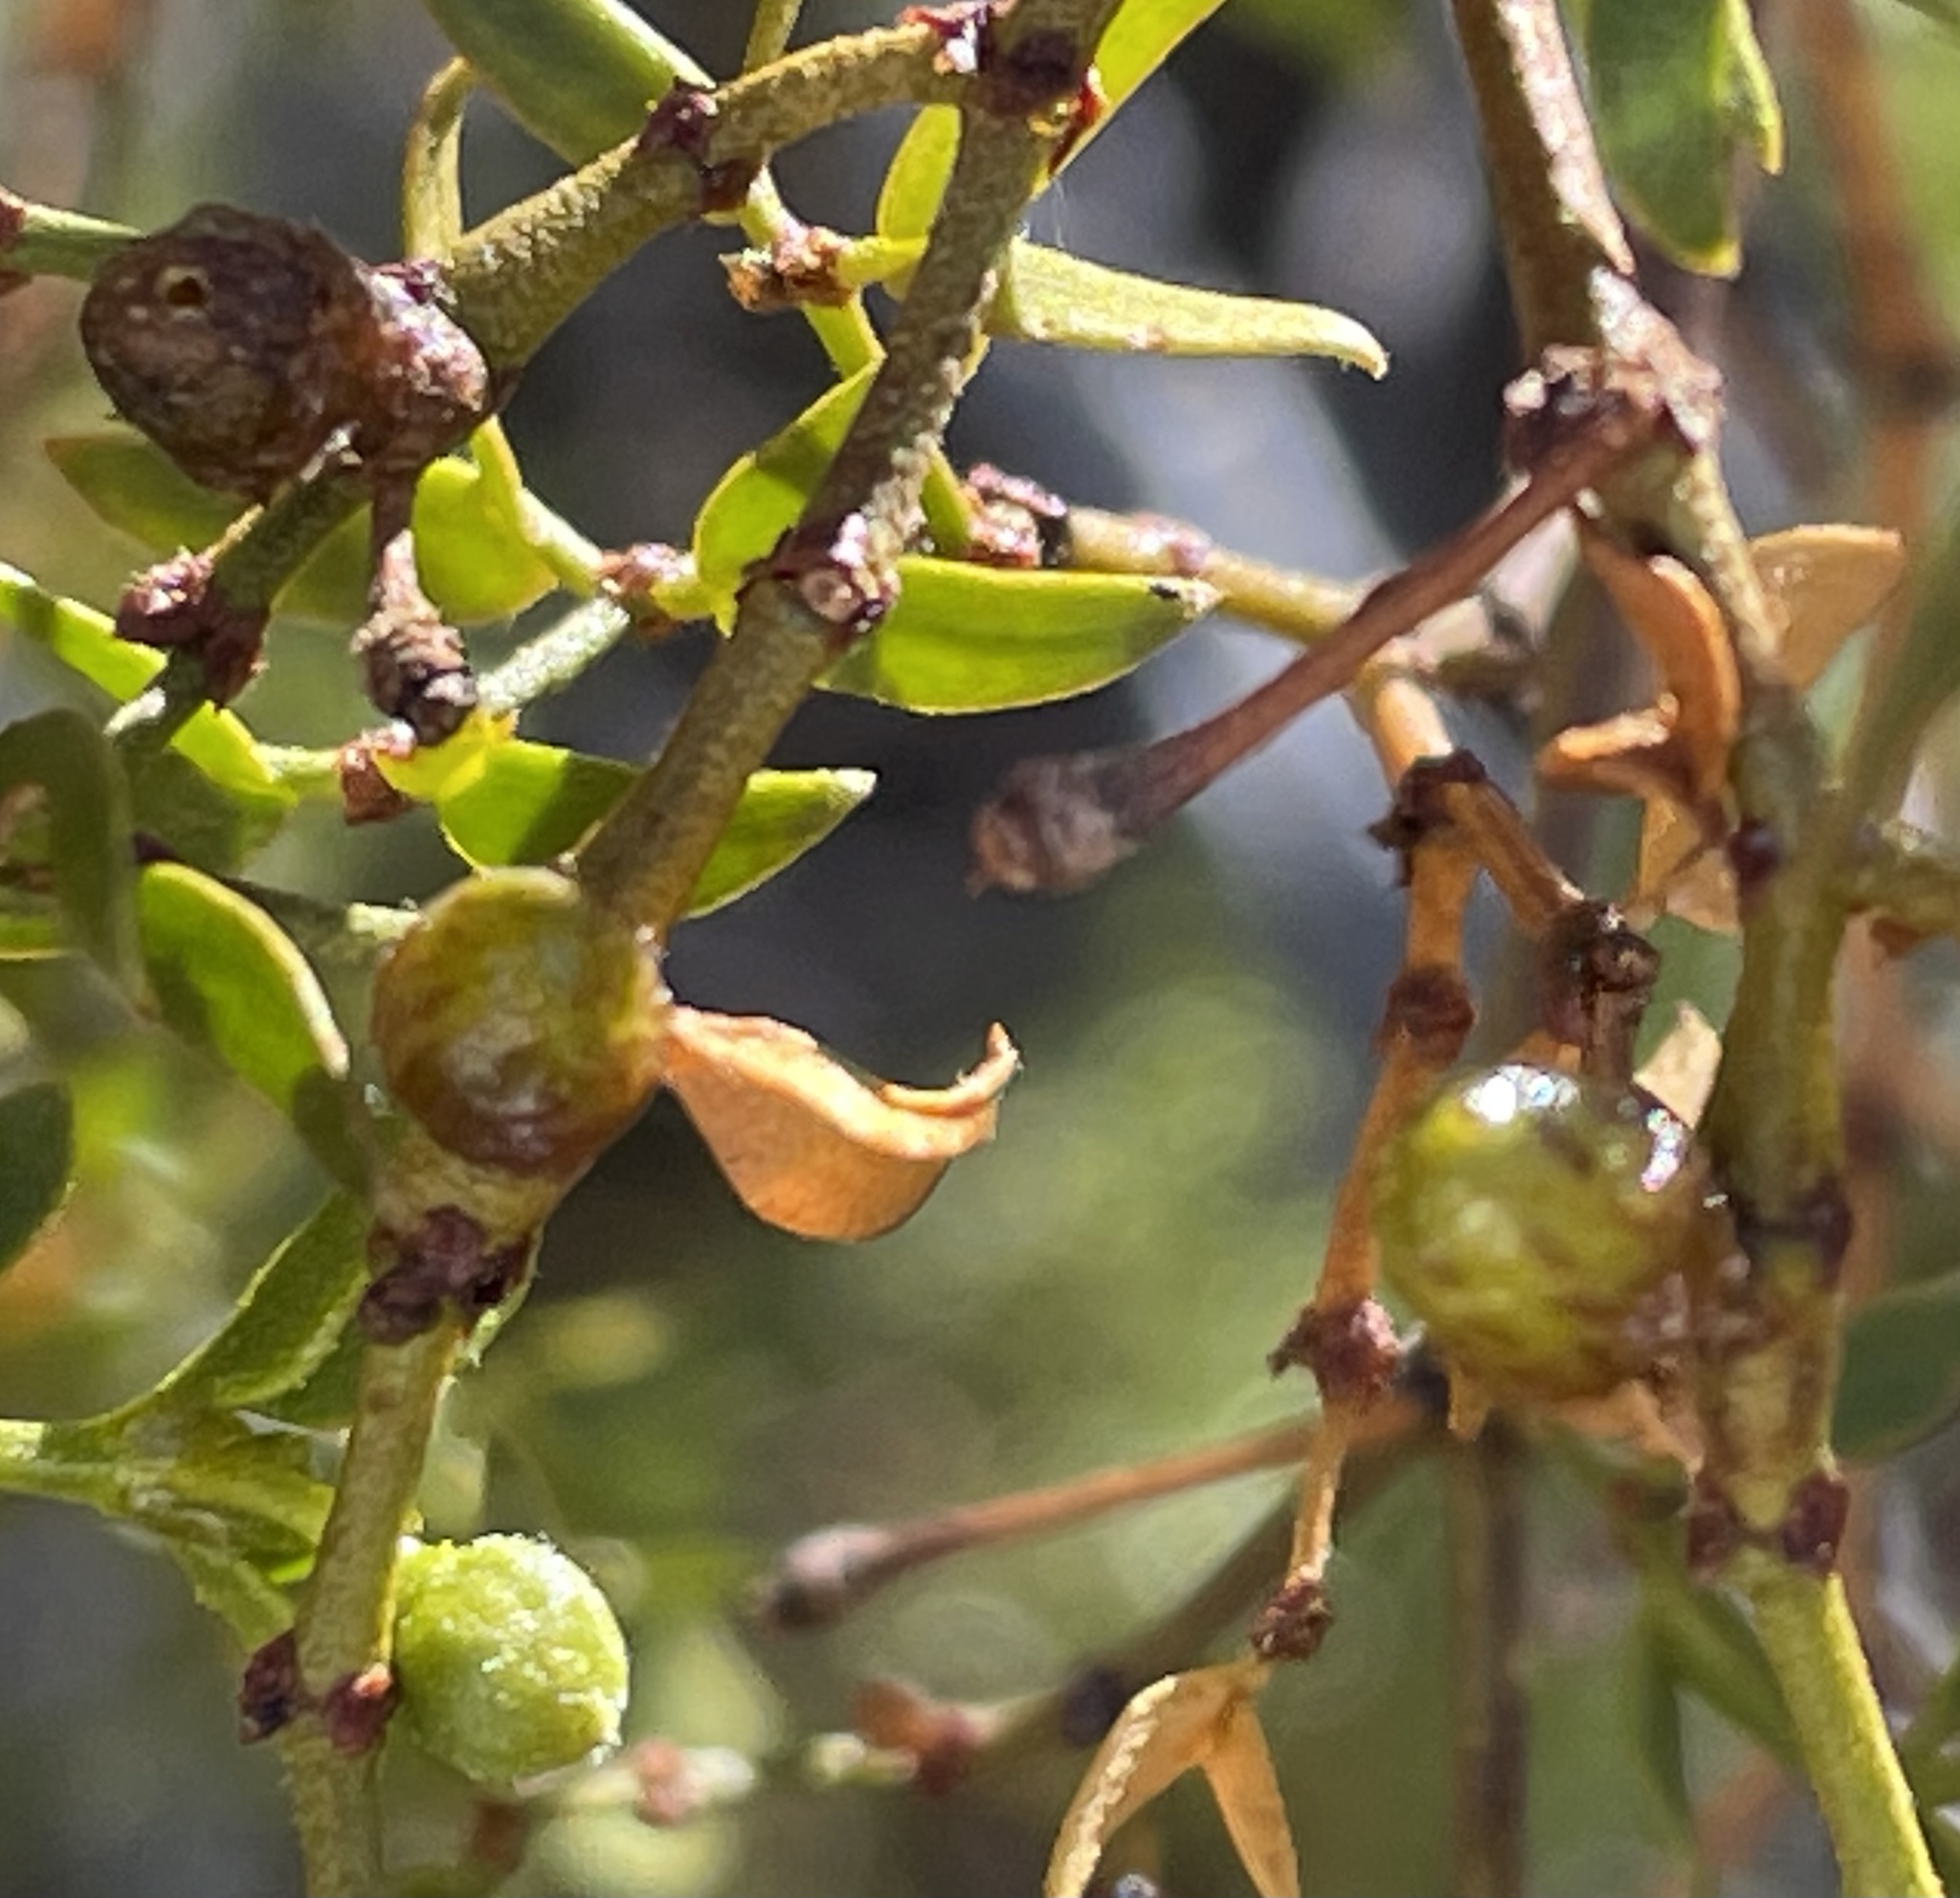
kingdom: Animalia
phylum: Arthropoda
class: Insecta
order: Diptera
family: Cecidomyiidae
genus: Asphondylia
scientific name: Asphondylia resinosa
